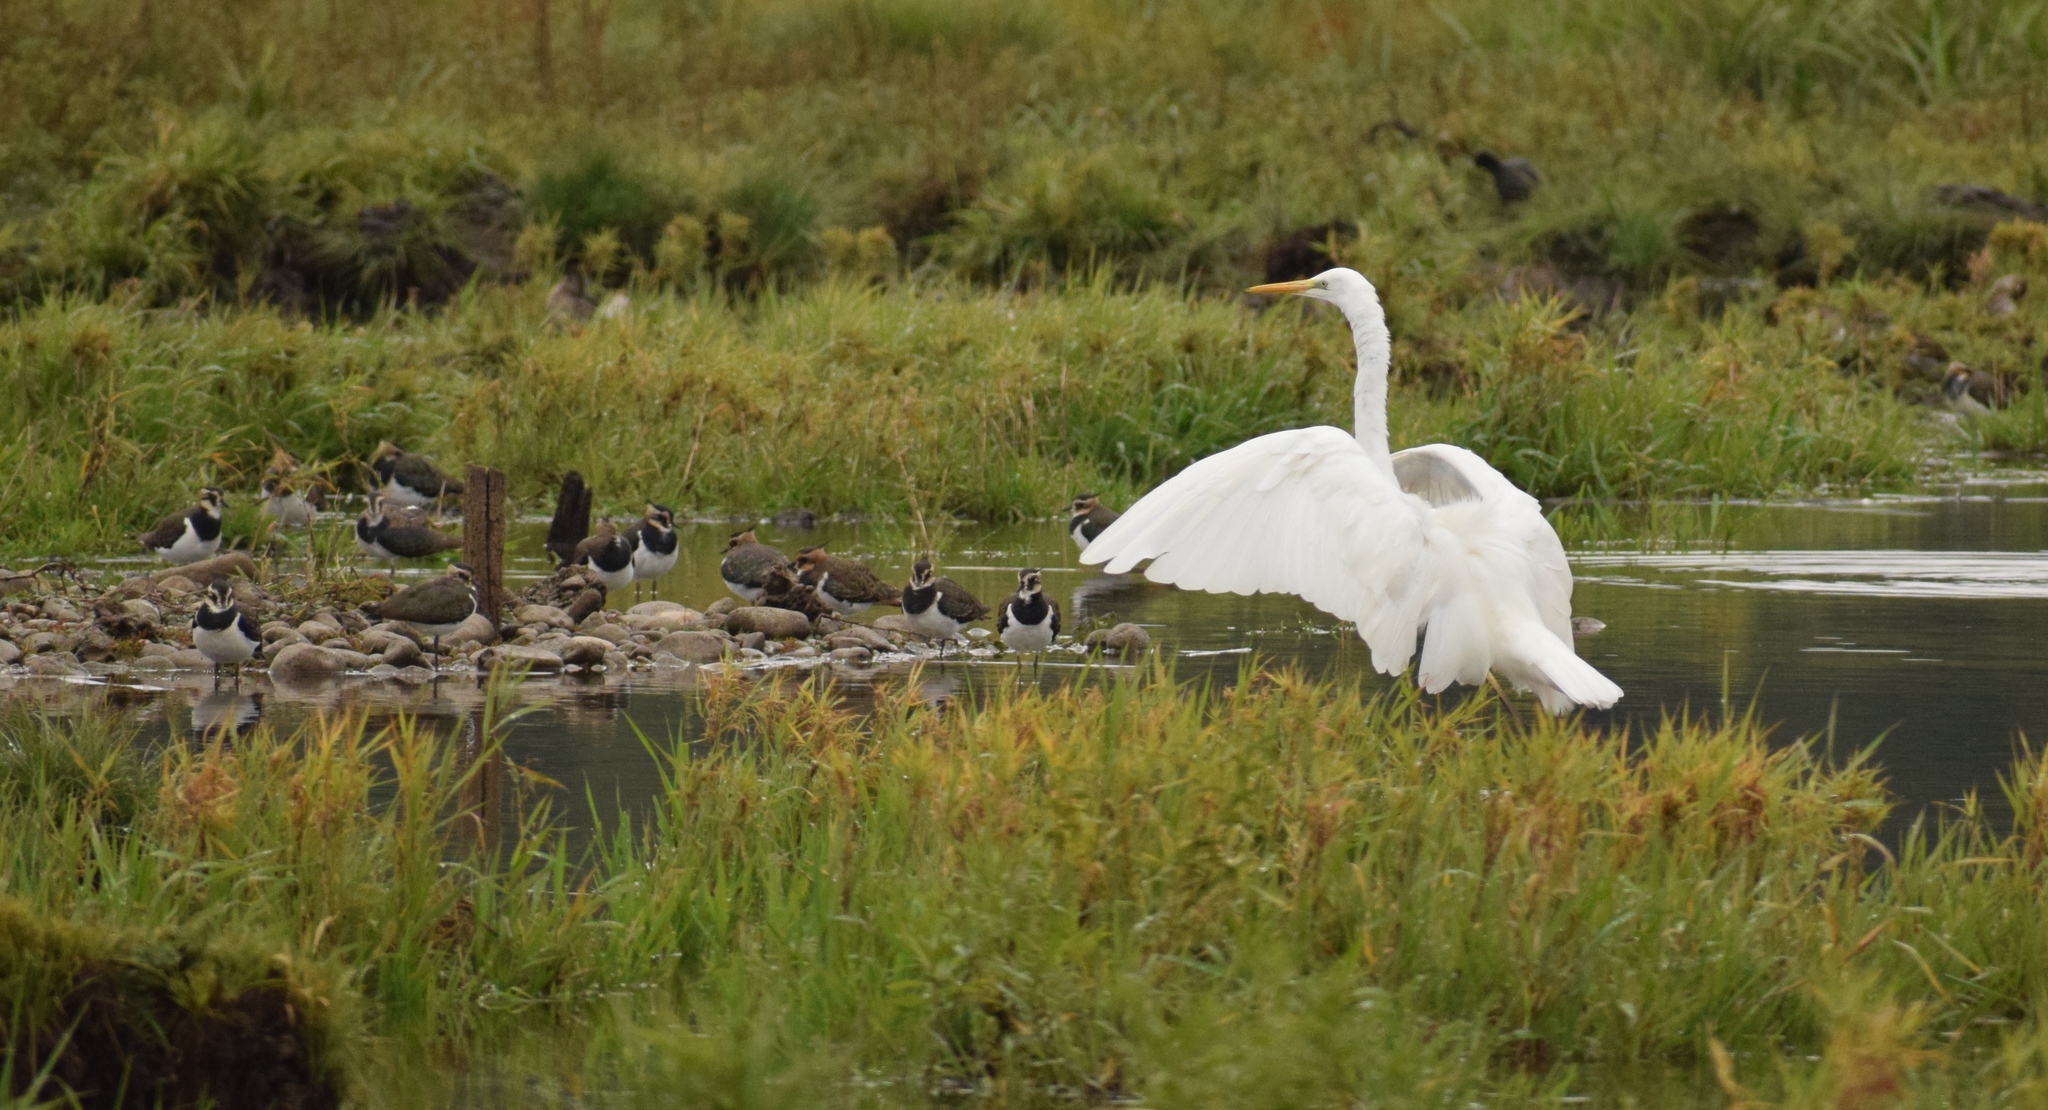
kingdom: Animalia
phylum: Chordata
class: Aves
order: Pelecaniformes
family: Ardeidae
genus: Ardea
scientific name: Ardea alba
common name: Great egret
